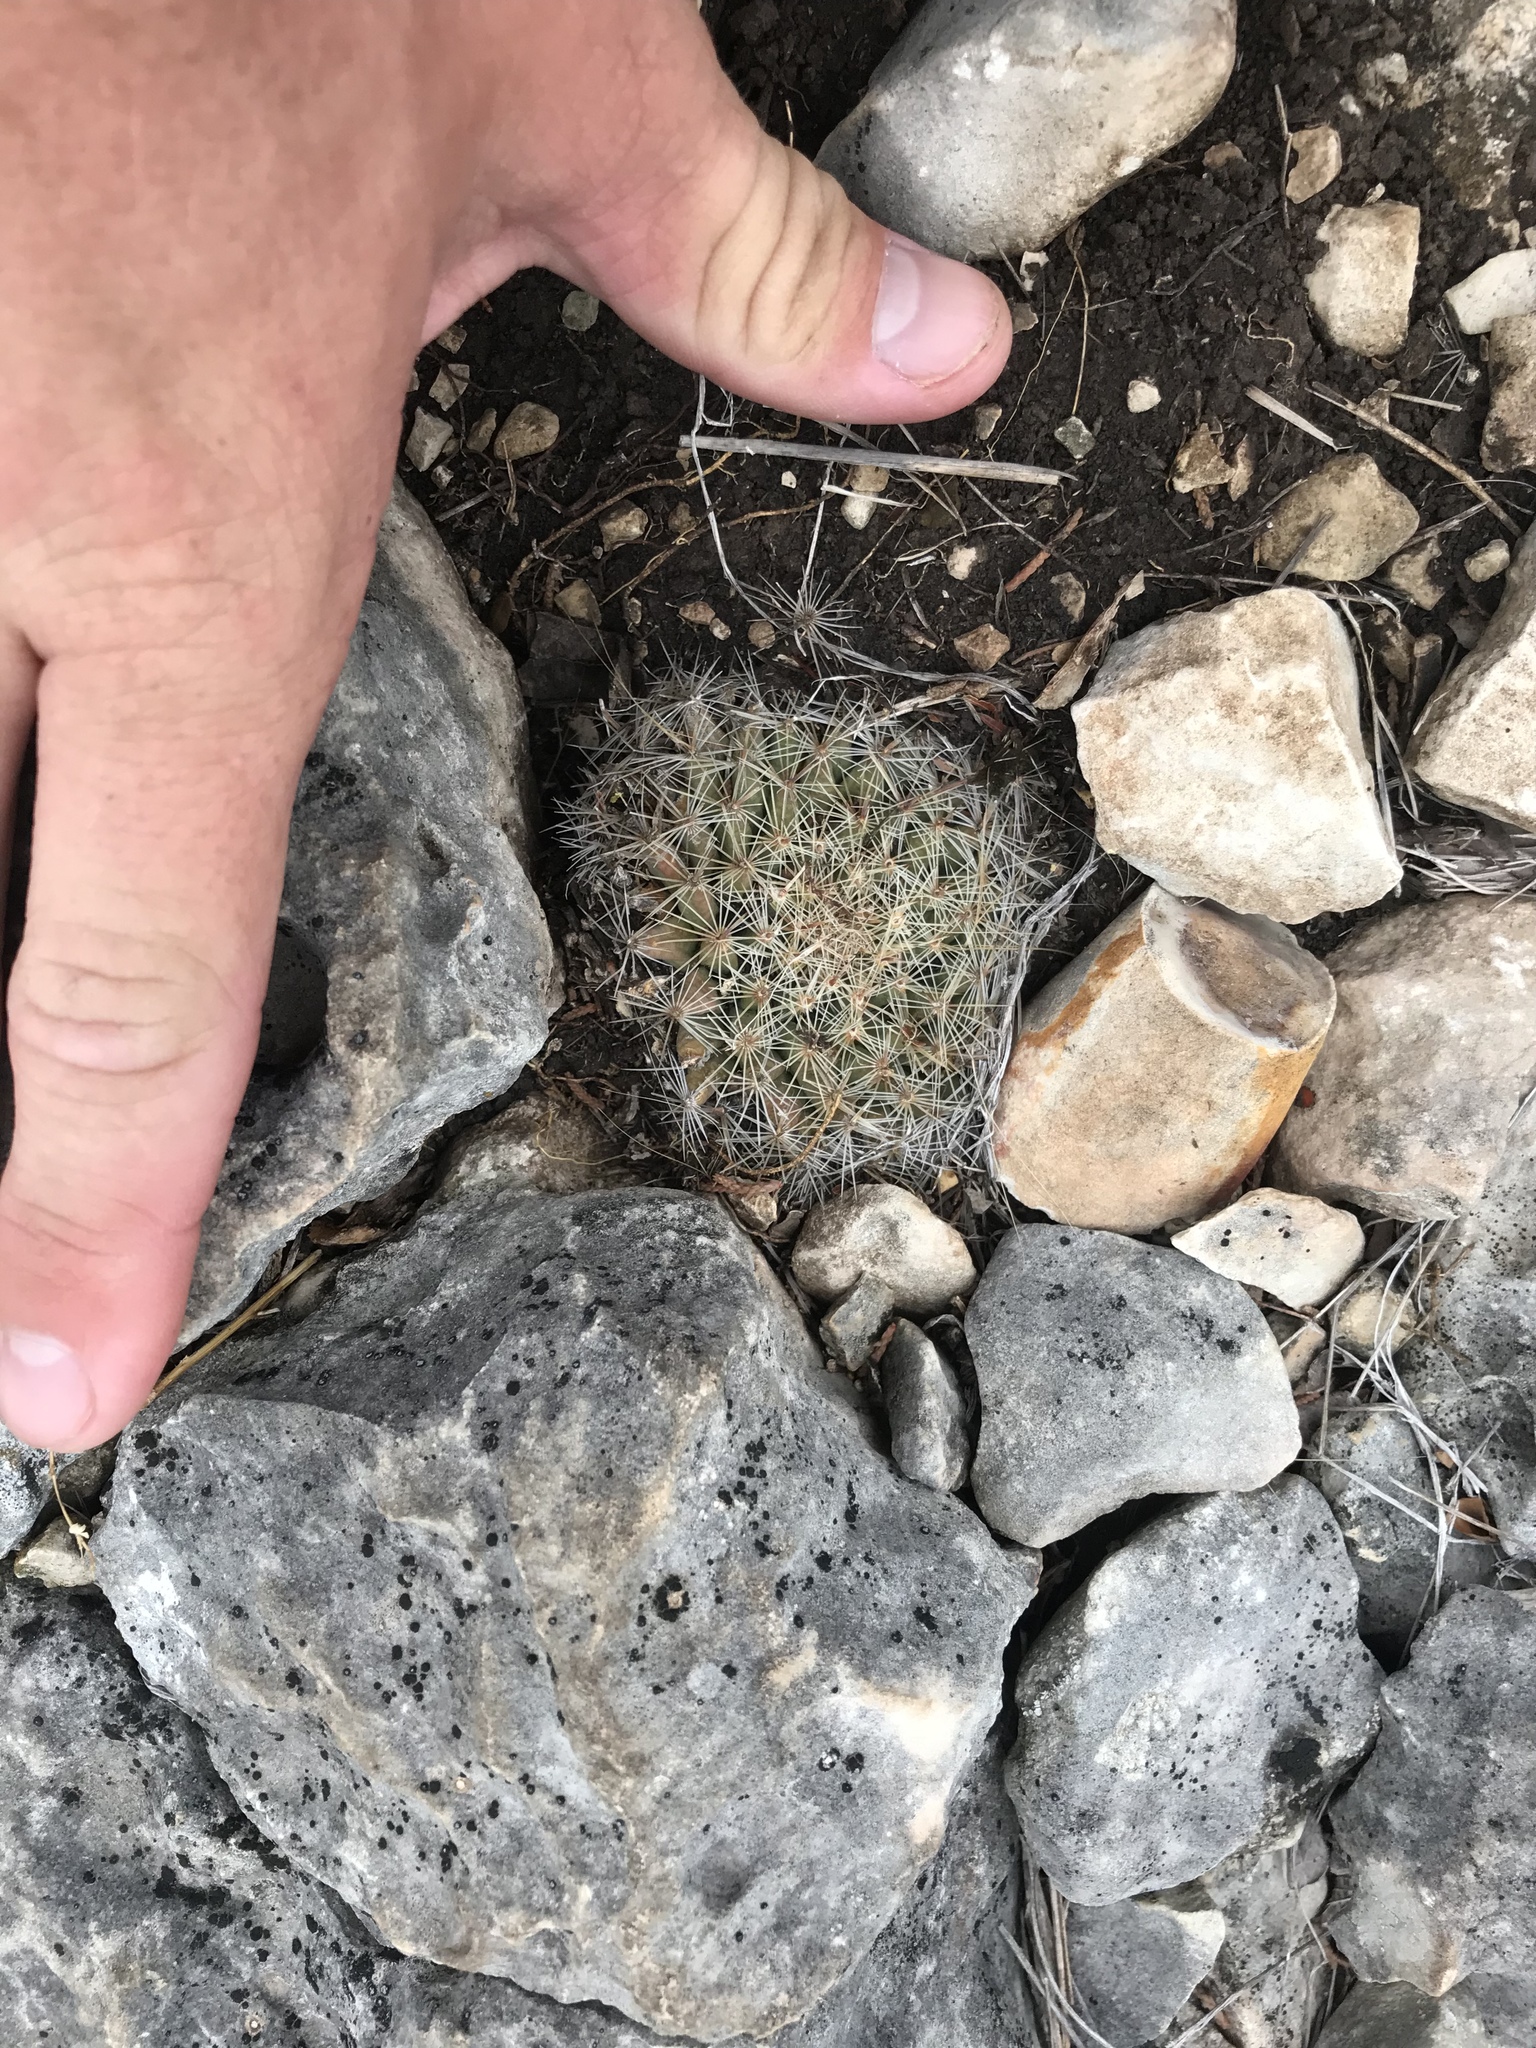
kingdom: Plantae
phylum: Tracheophyta
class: Magnoliopsida
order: Caryophyllales
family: Cactaceae
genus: Mammillaria
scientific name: Mammillaria heyderi
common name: Little nipple cactus
